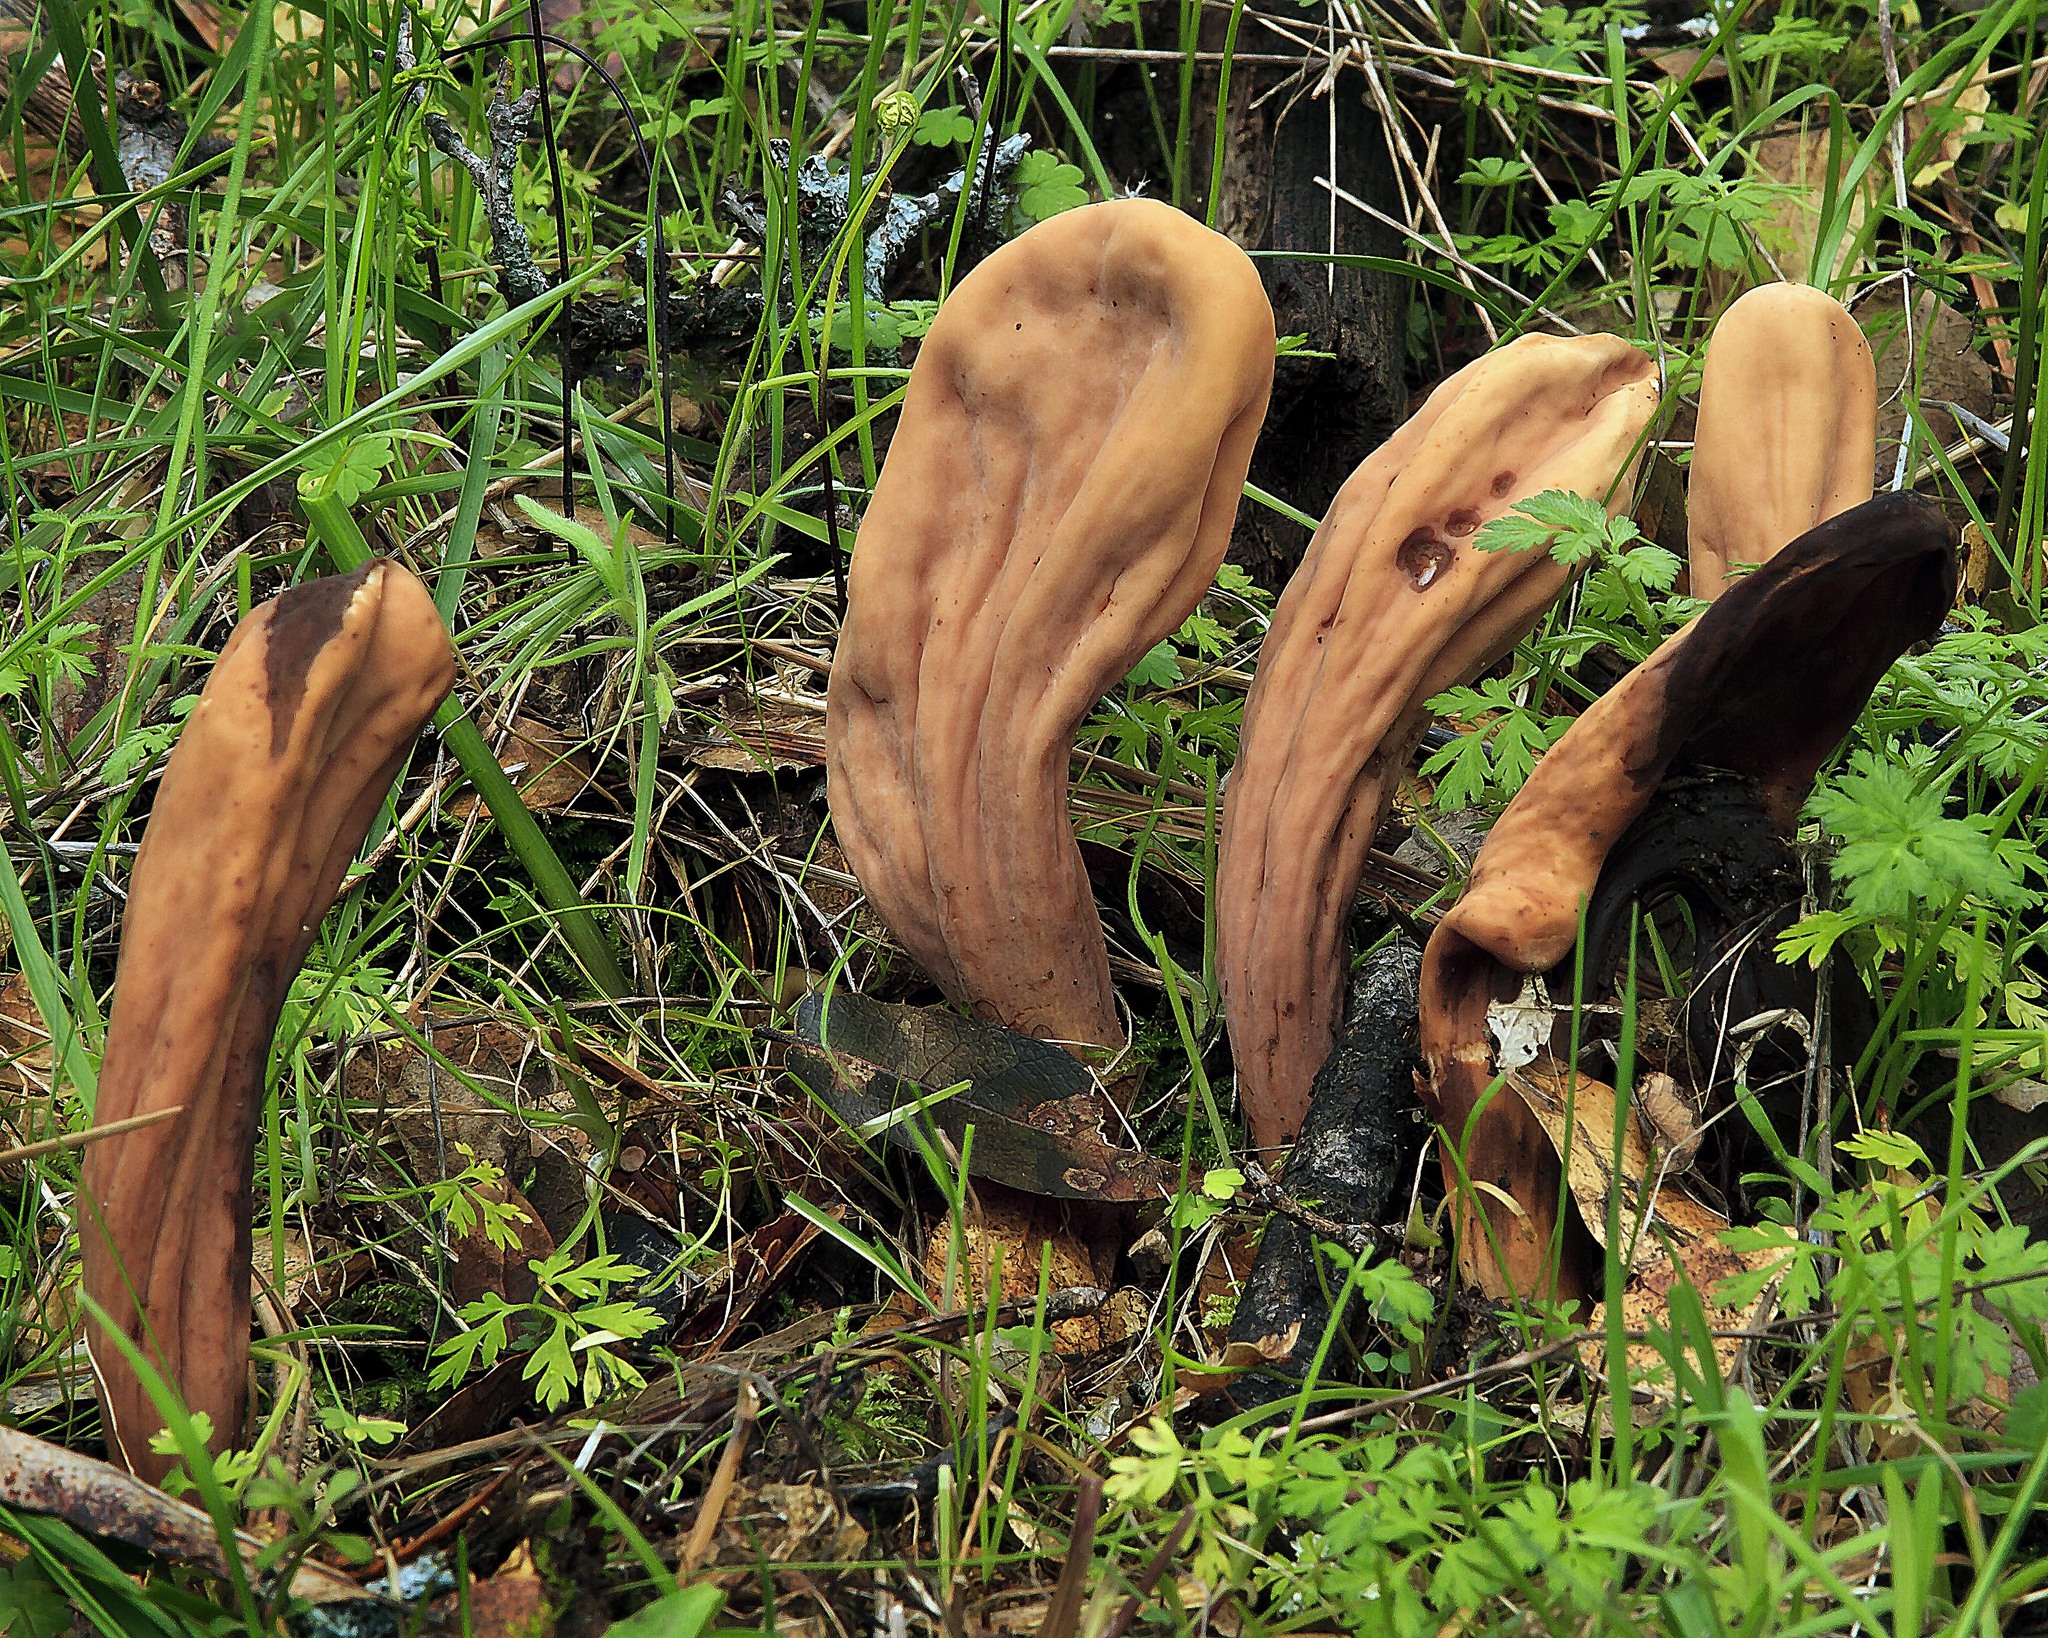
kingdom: Fungi
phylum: Basidiomycota
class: Agaricomycetes
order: Gomphales
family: Clavariadelphaceae
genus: Clavariadelphus
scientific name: Clavariadelphus occidentalis
